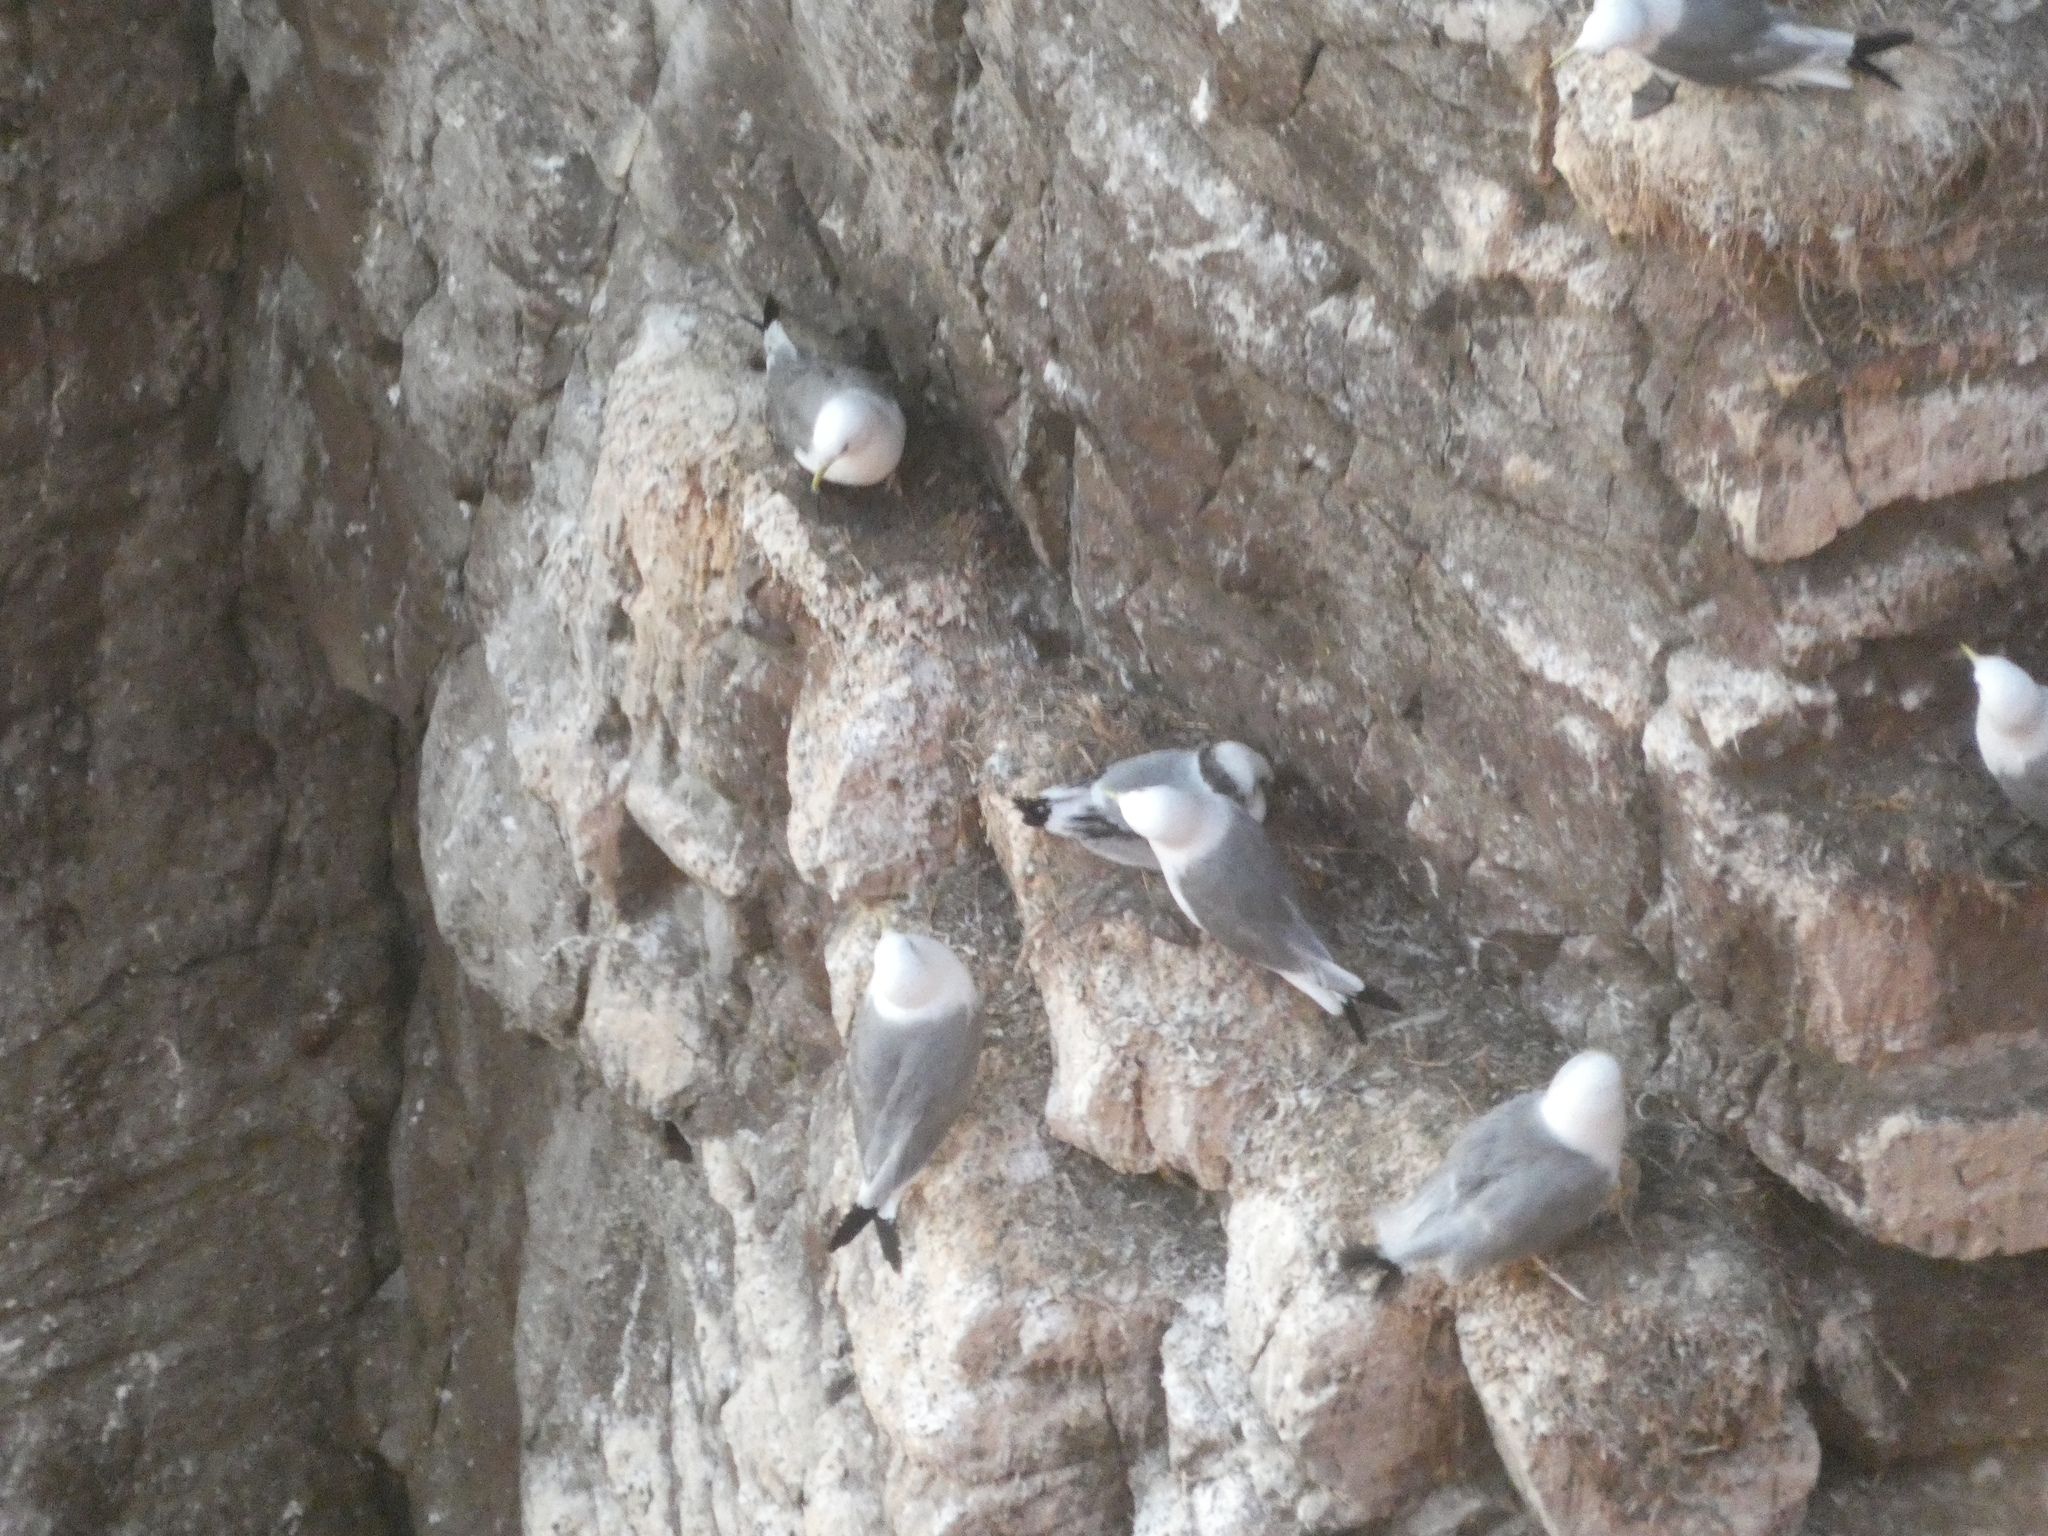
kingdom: Animalia
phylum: Chordata
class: Aves
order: Charadriiformes
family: Laridae
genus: Rissa
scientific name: Rissa tridactyla
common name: Black-legged kittiwake
